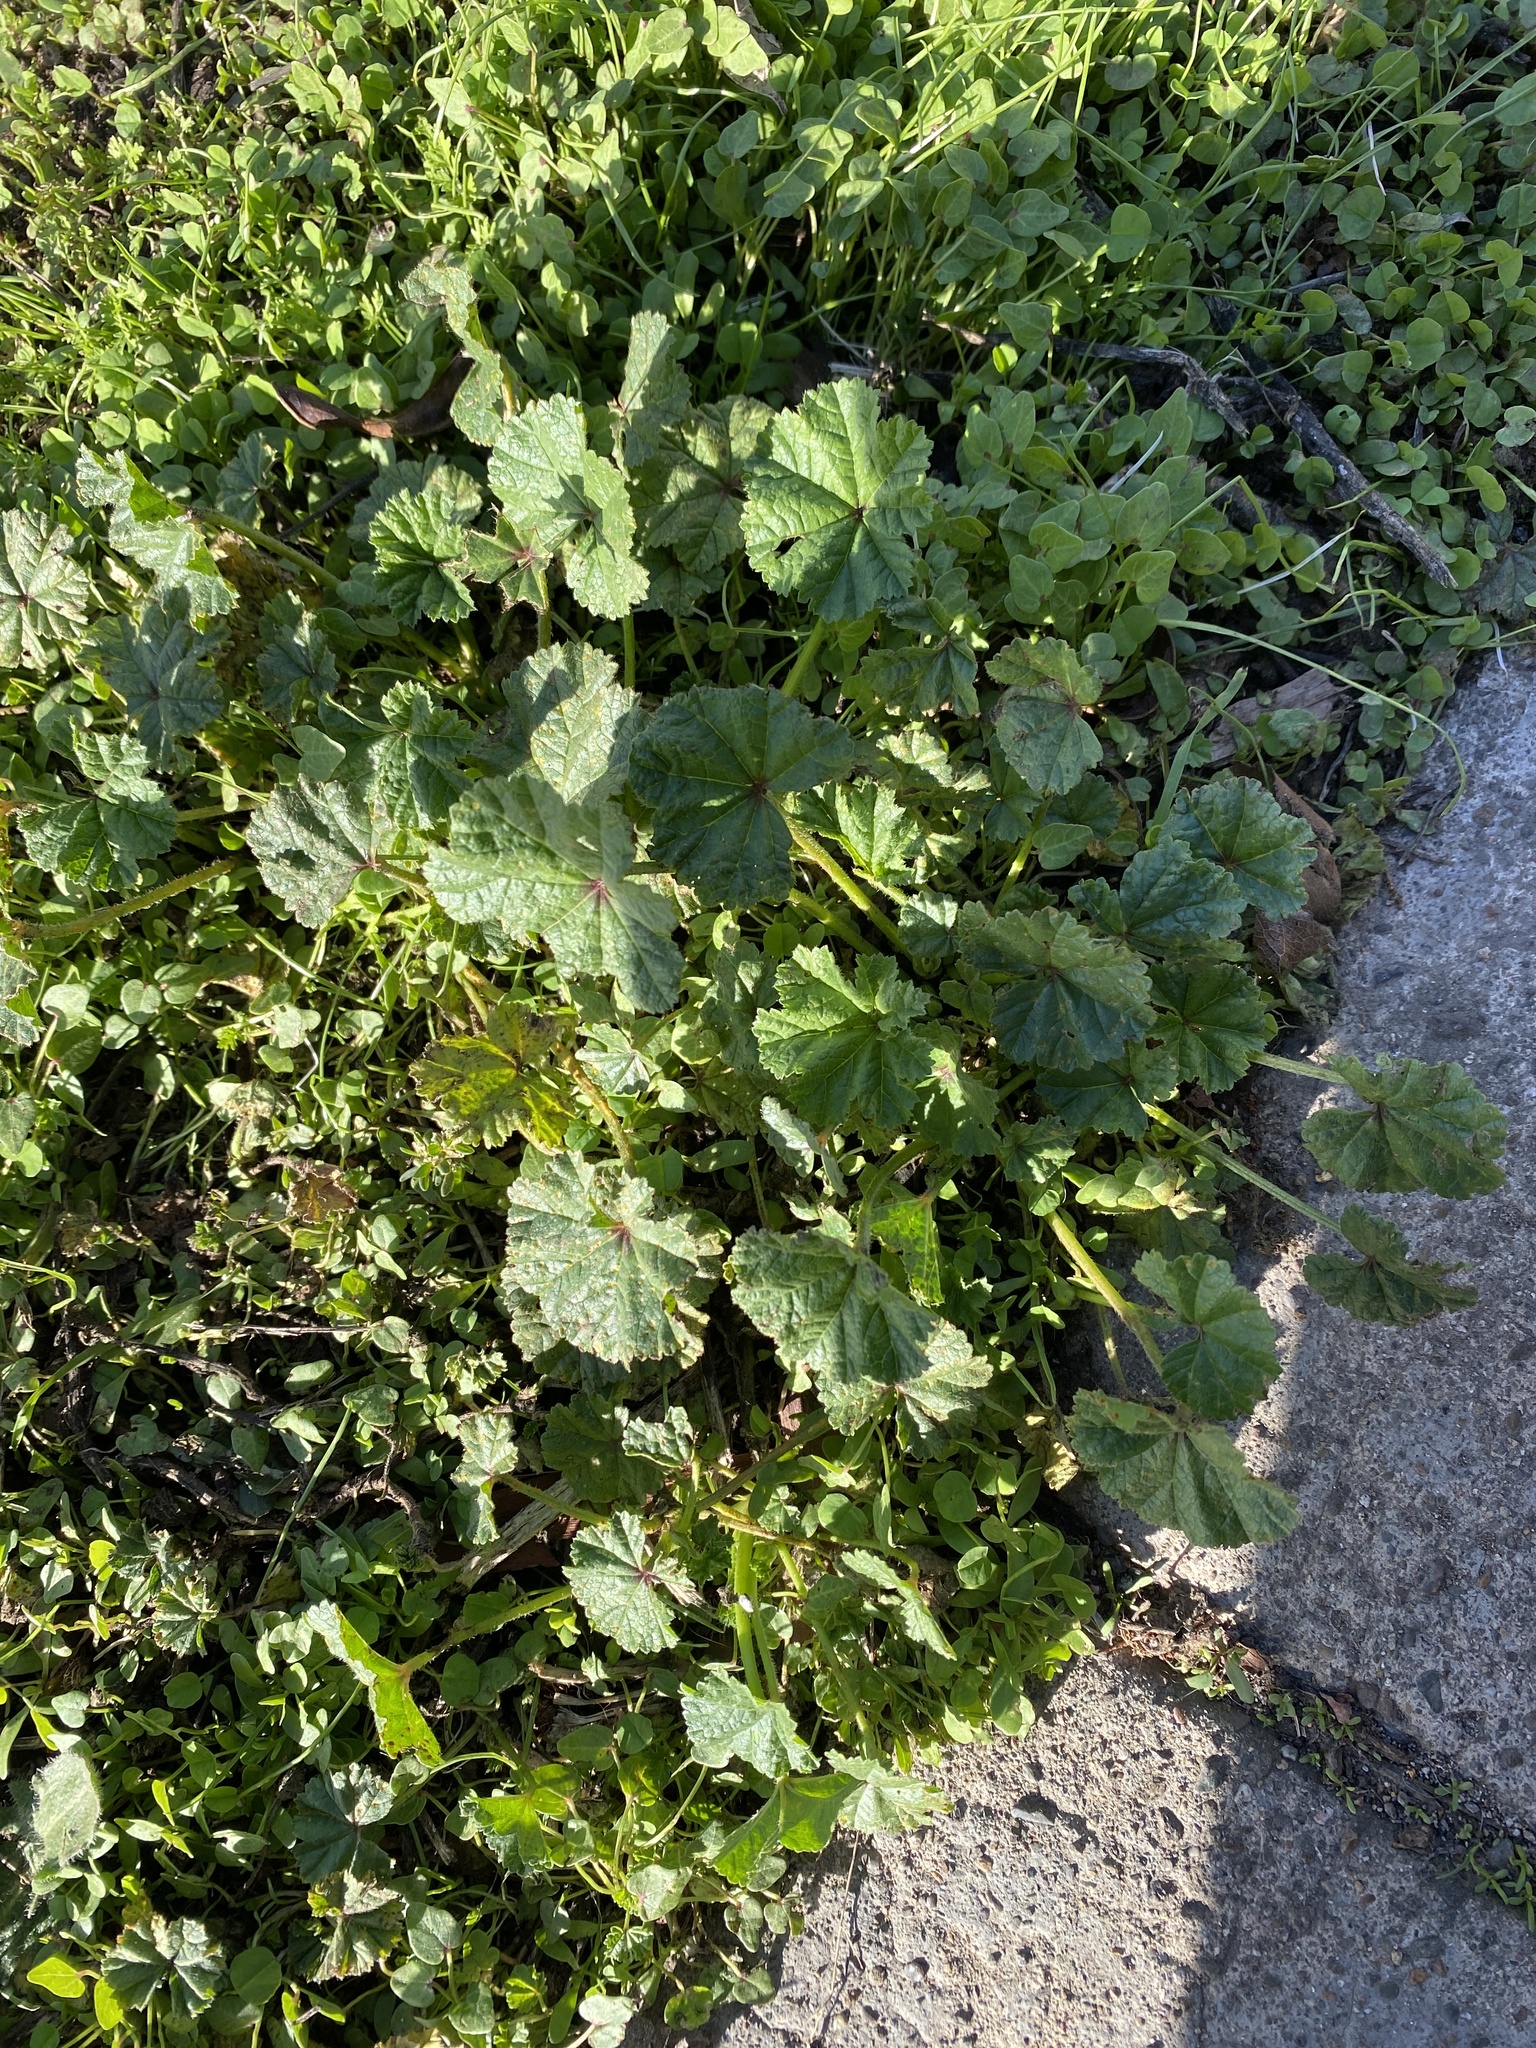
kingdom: Plantae
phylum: Tracheophyta
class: Magnoliopsida
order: Malvales
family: Malvaceae
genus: Malva
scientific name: Malva
